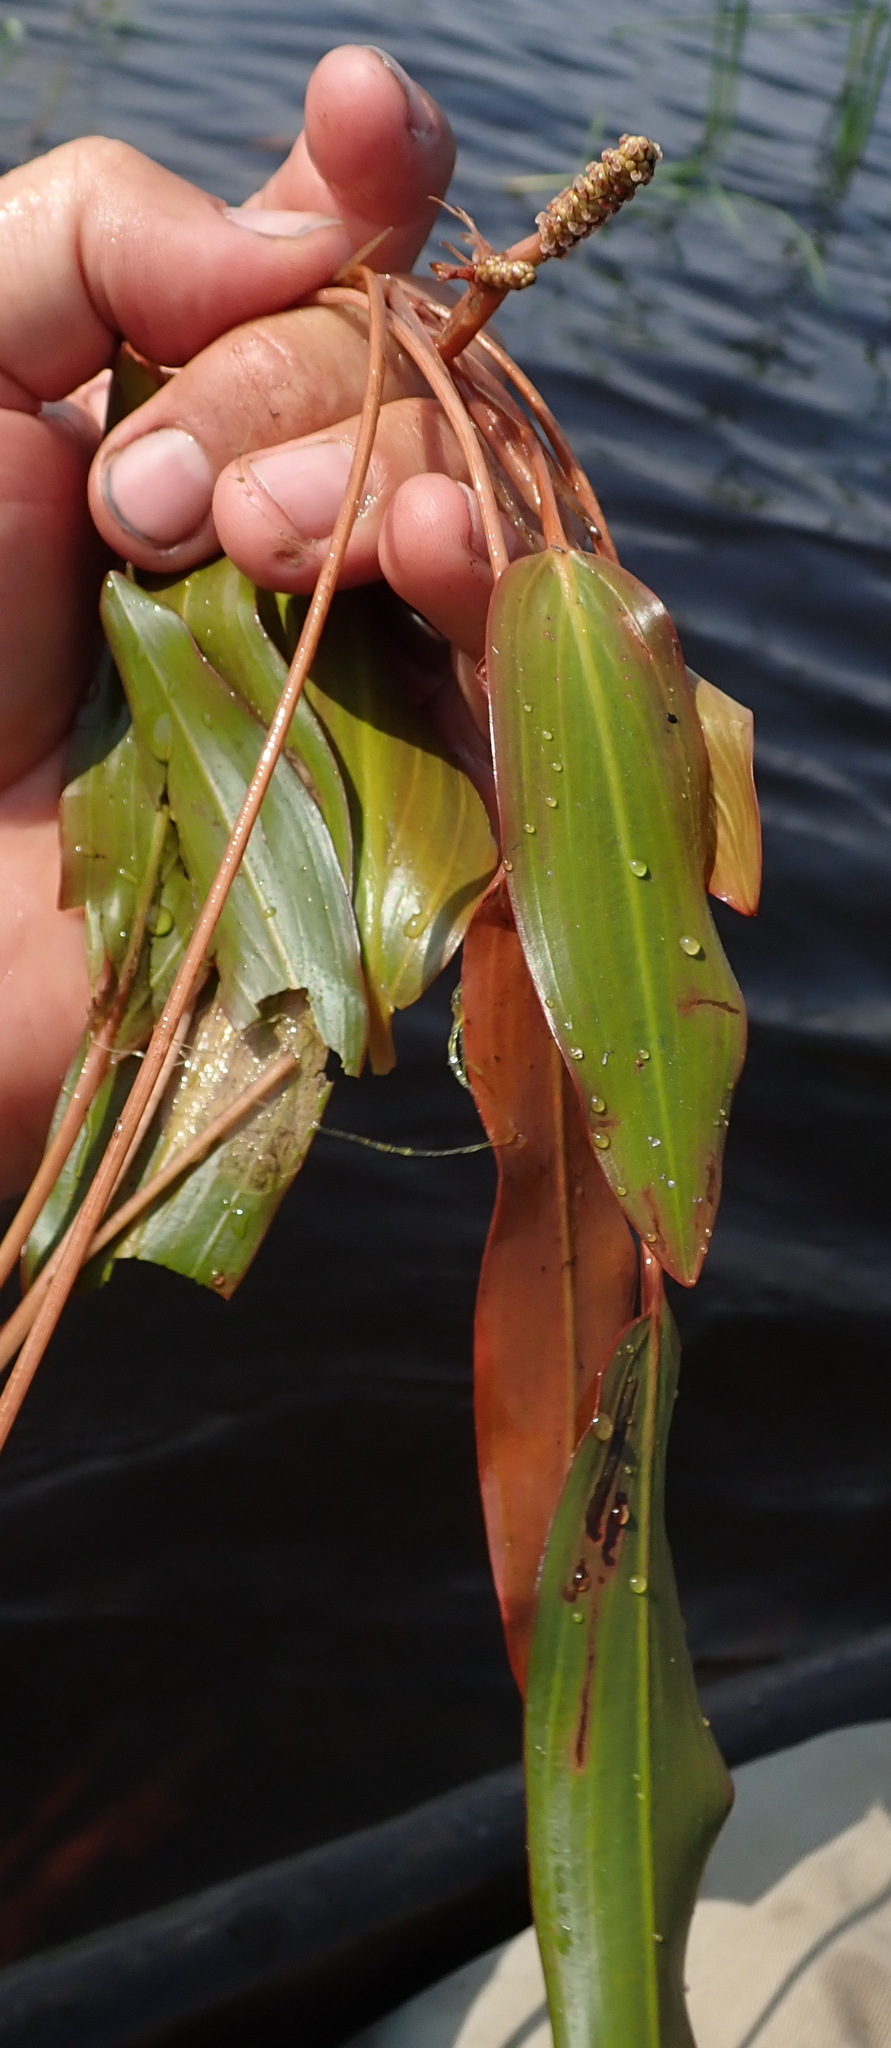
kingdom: Plantae
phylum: Tracheophyta
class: Liliopsida
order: Alismatales
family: Potamogetonaceae
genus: Potamogeton
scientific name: Potamogeton nodosus
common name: Loddon pondweed
